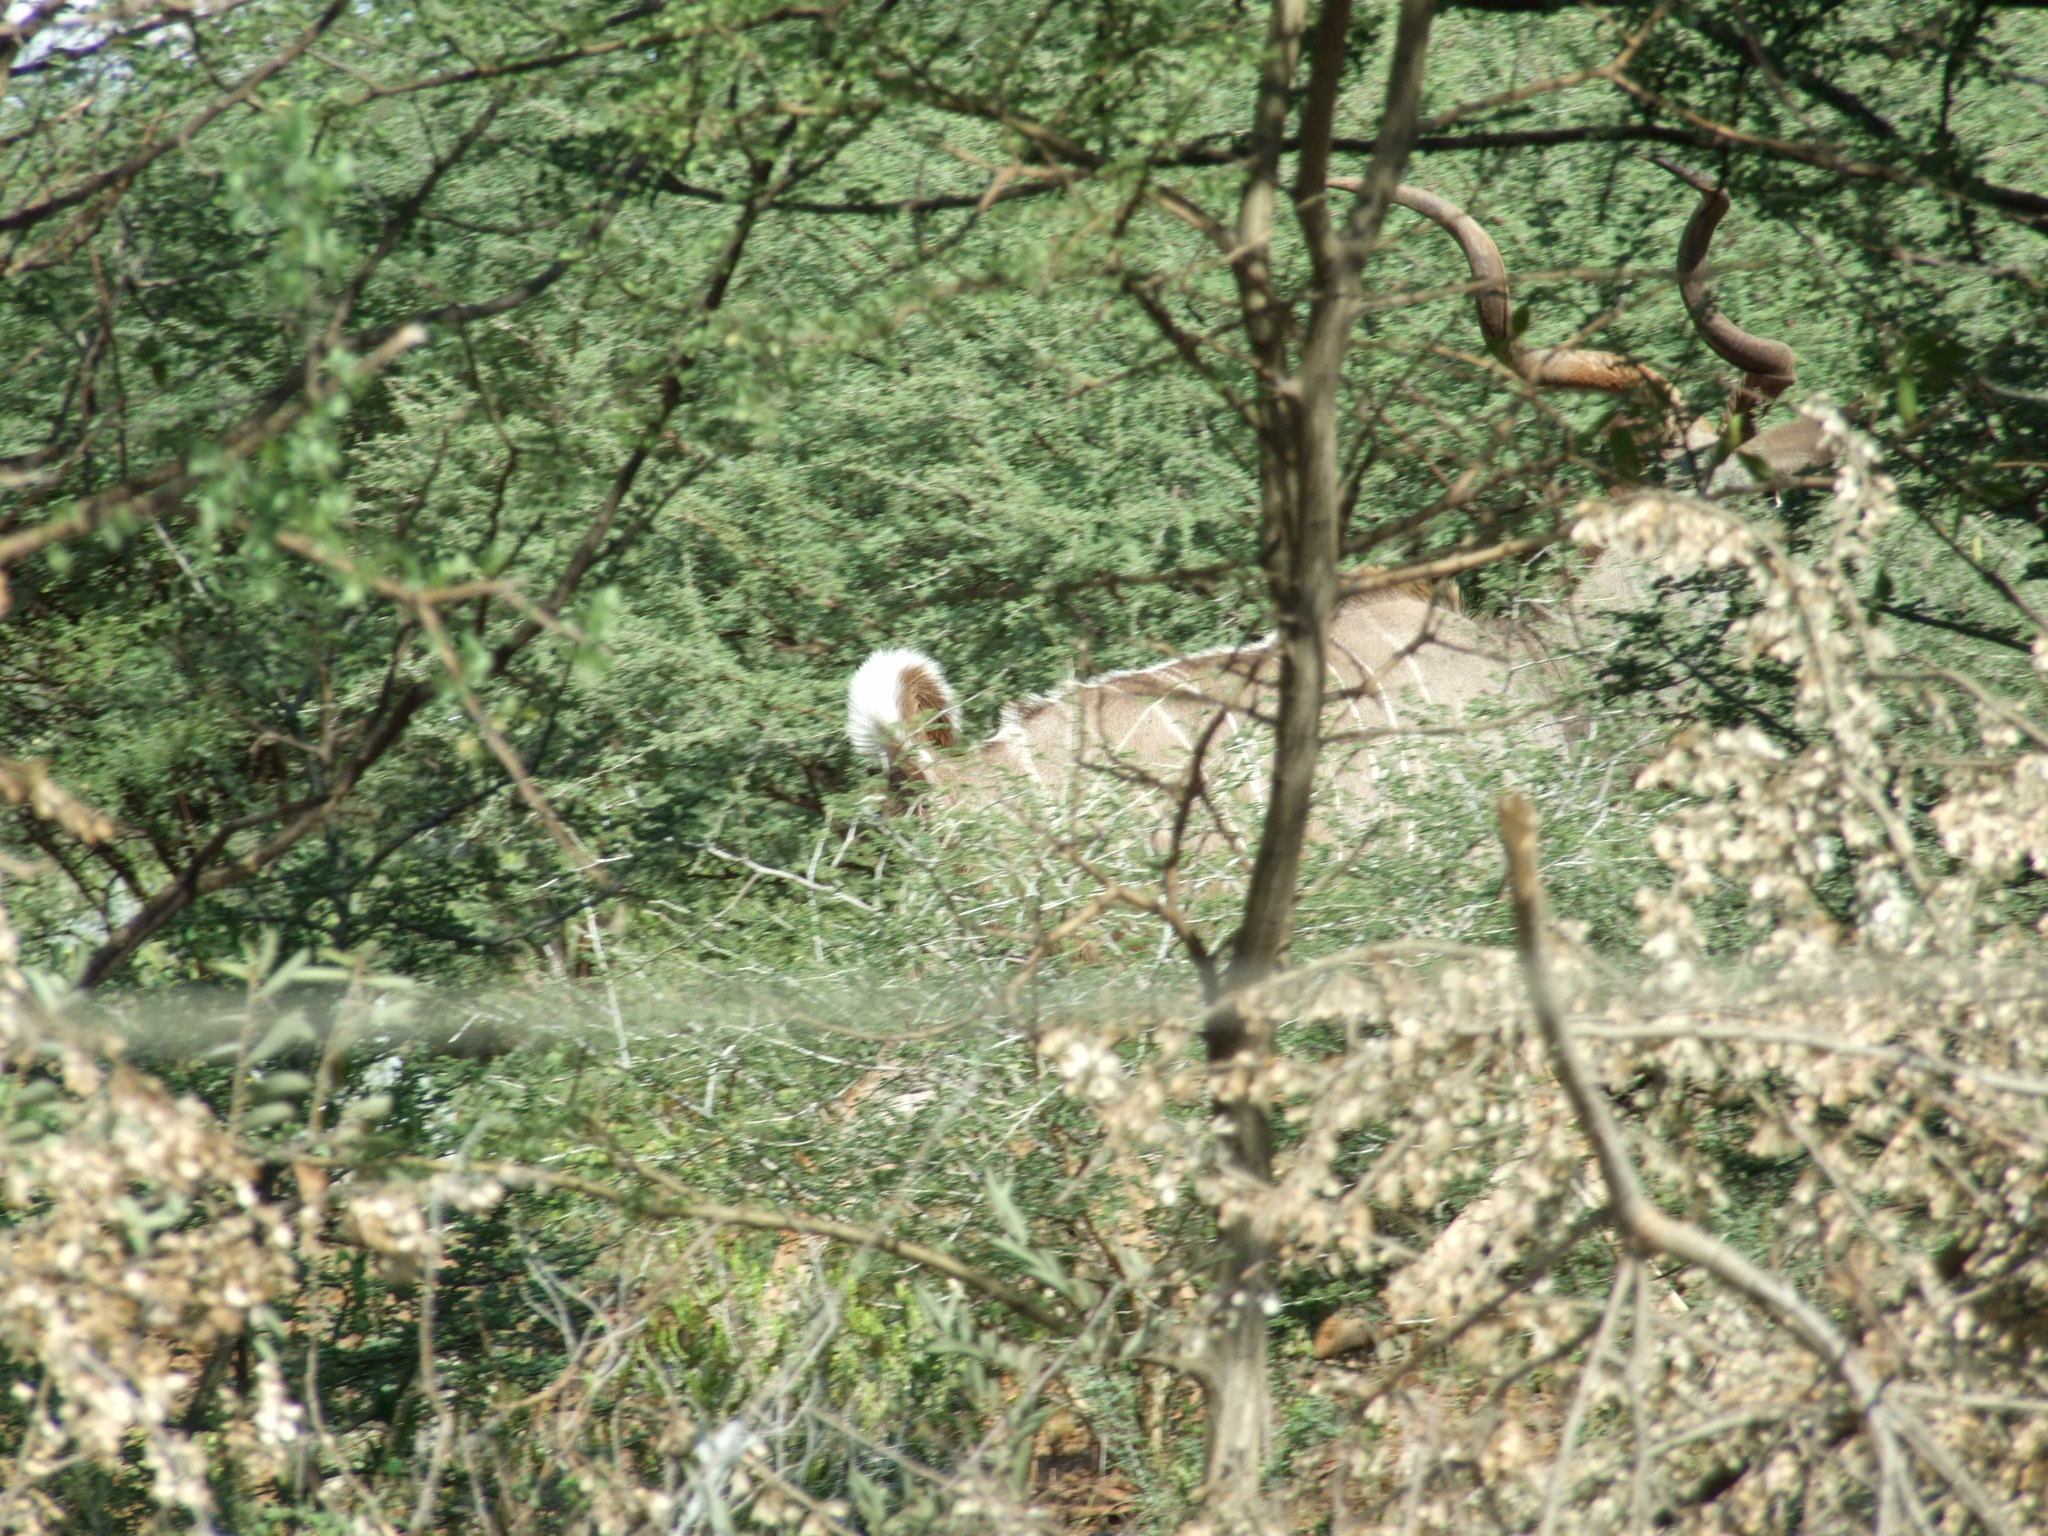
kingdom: Animalia
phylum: Chordata
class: Mammalia
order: Artiodactyla
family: Bovidae
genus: Tragelaphus
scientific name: Tragelaphus strepsiceros
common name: Greater kudu
